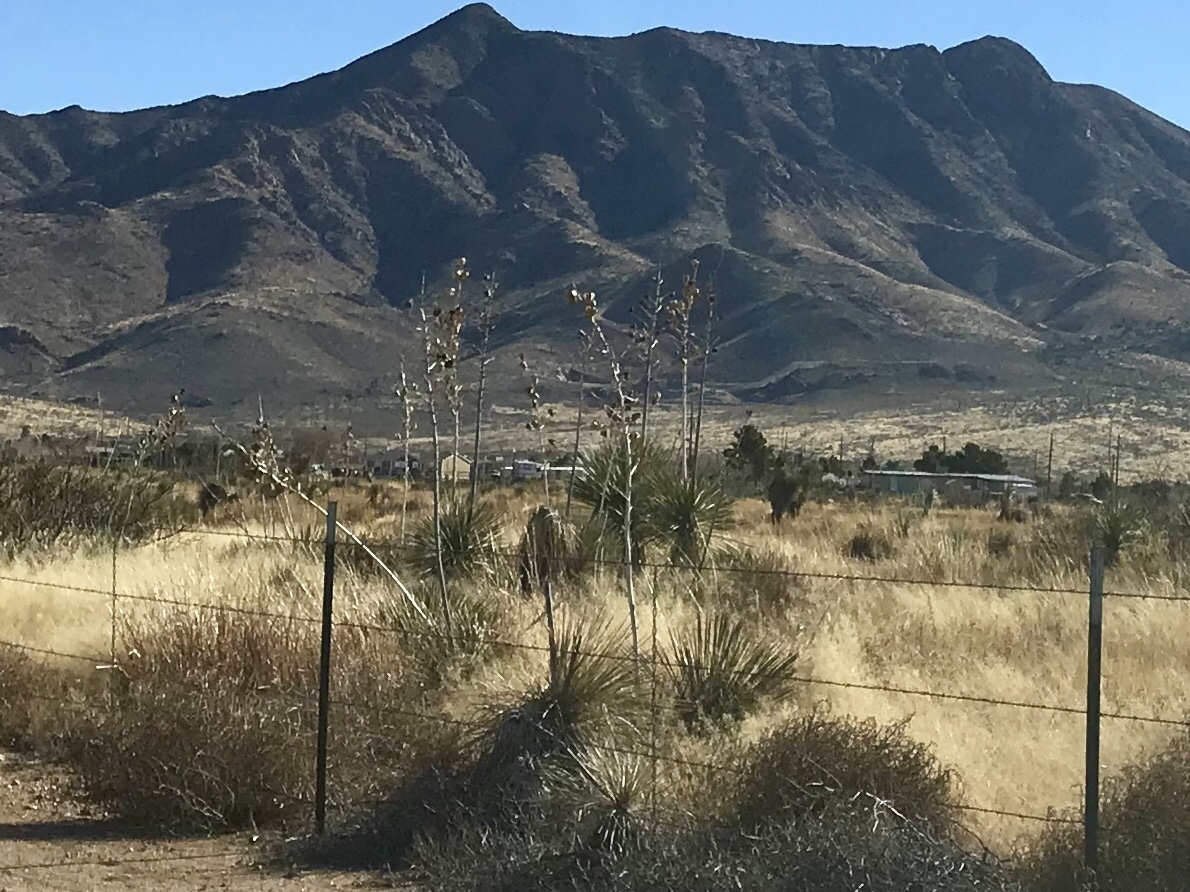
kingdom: Plantae
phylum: Tracheophyta
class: Liliopsida
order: Asparagales
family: Asparagaceae
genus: Yucca
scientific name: Yucca elata
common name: Palmella
